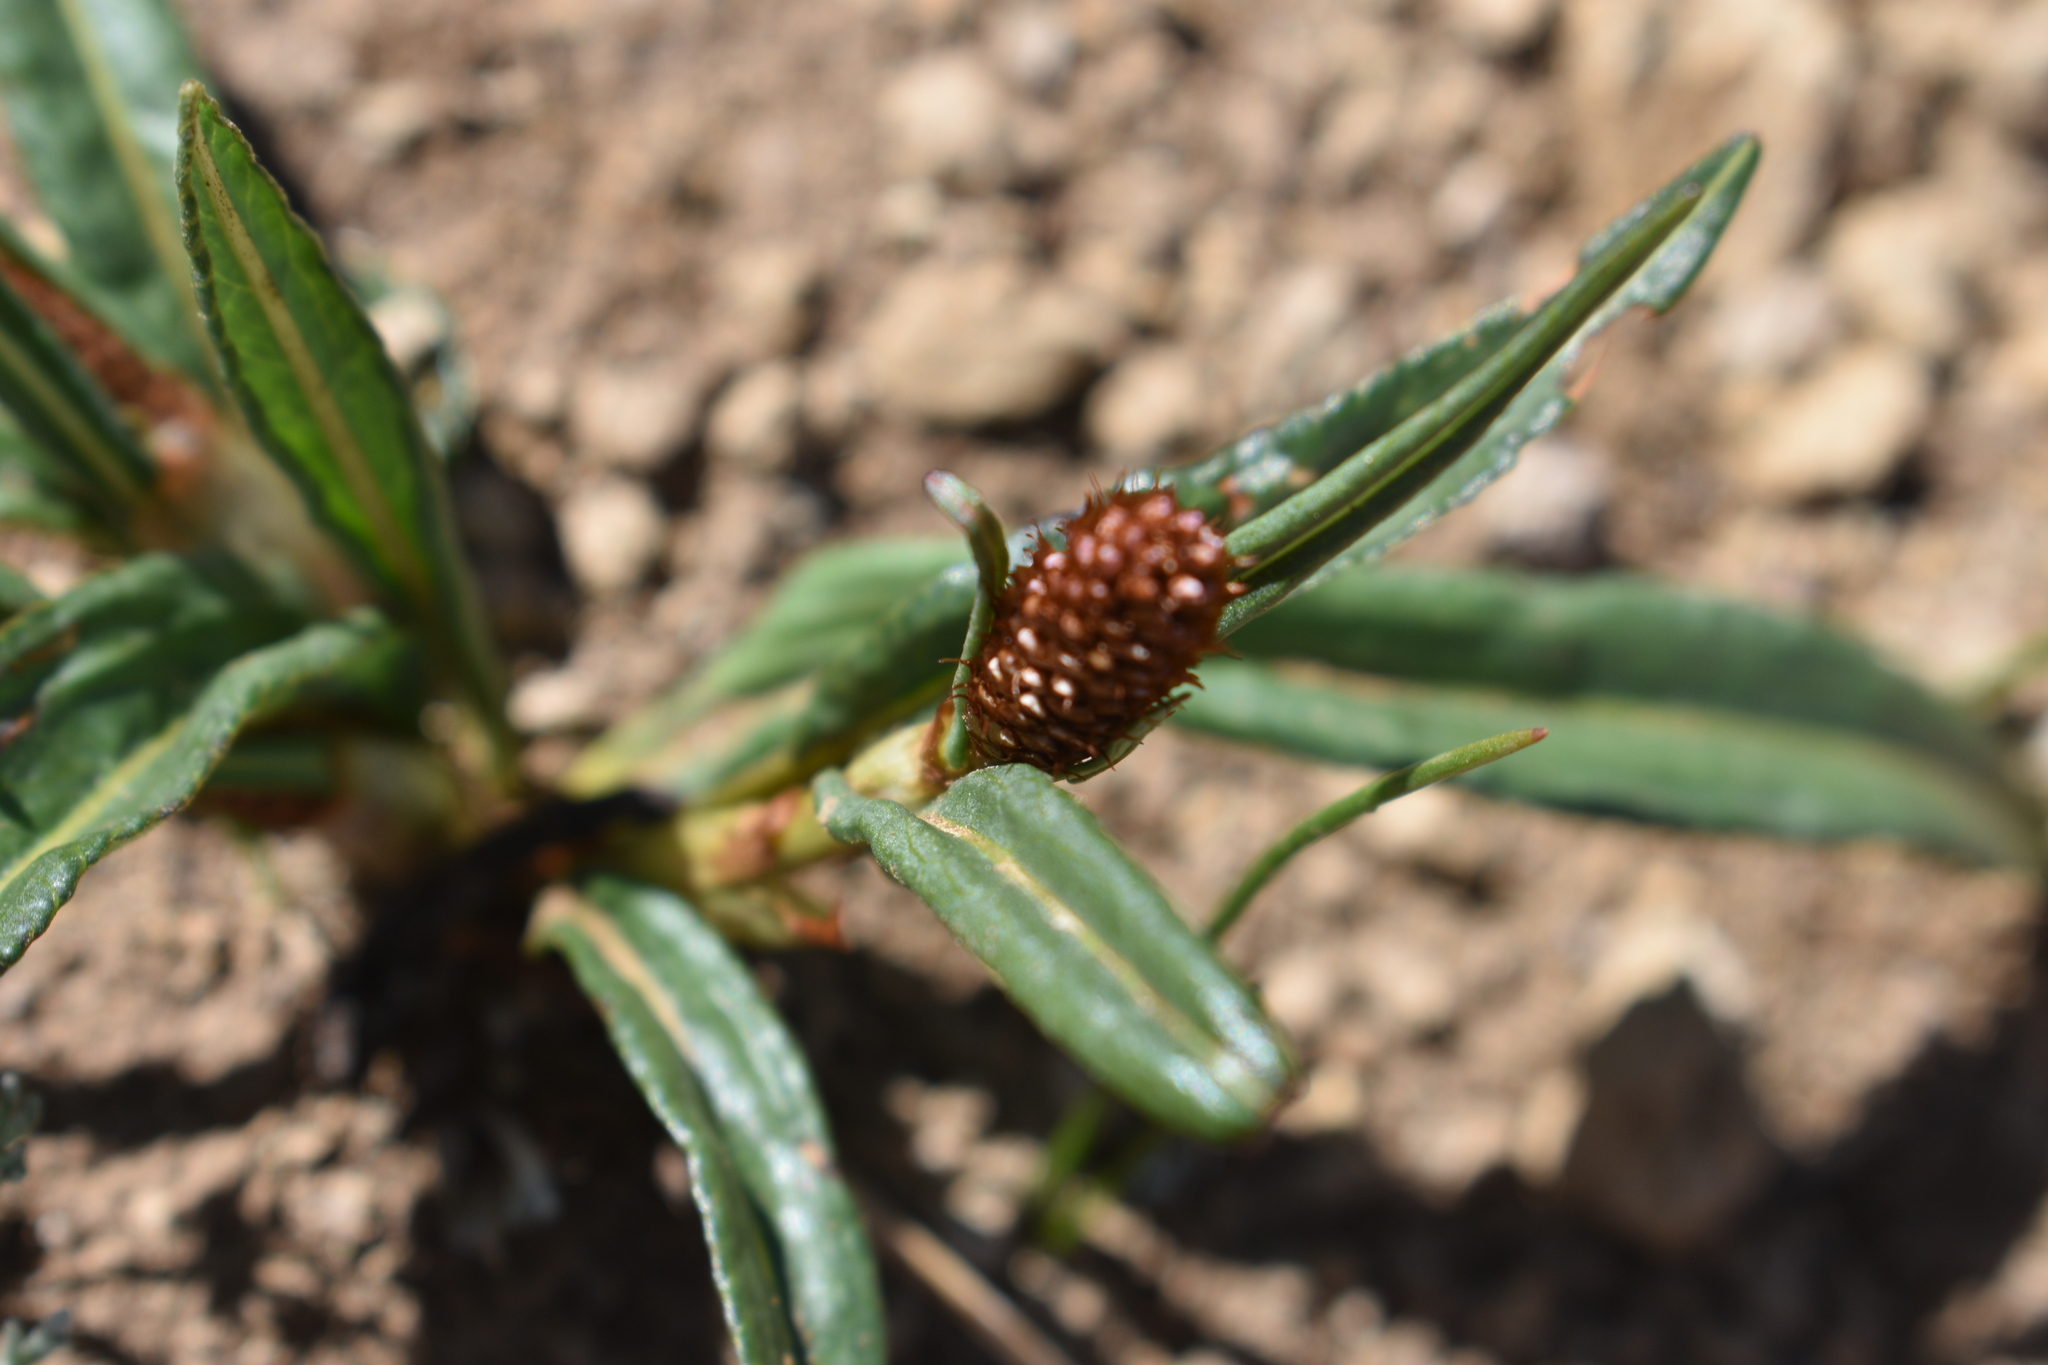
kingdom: Plantae
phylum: Tracheophyta
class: Magnoliopsida
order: Caryophyllales
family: Polygonaceae
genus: Bistorta
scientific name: Bistorta bistortoides
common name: American bistort
